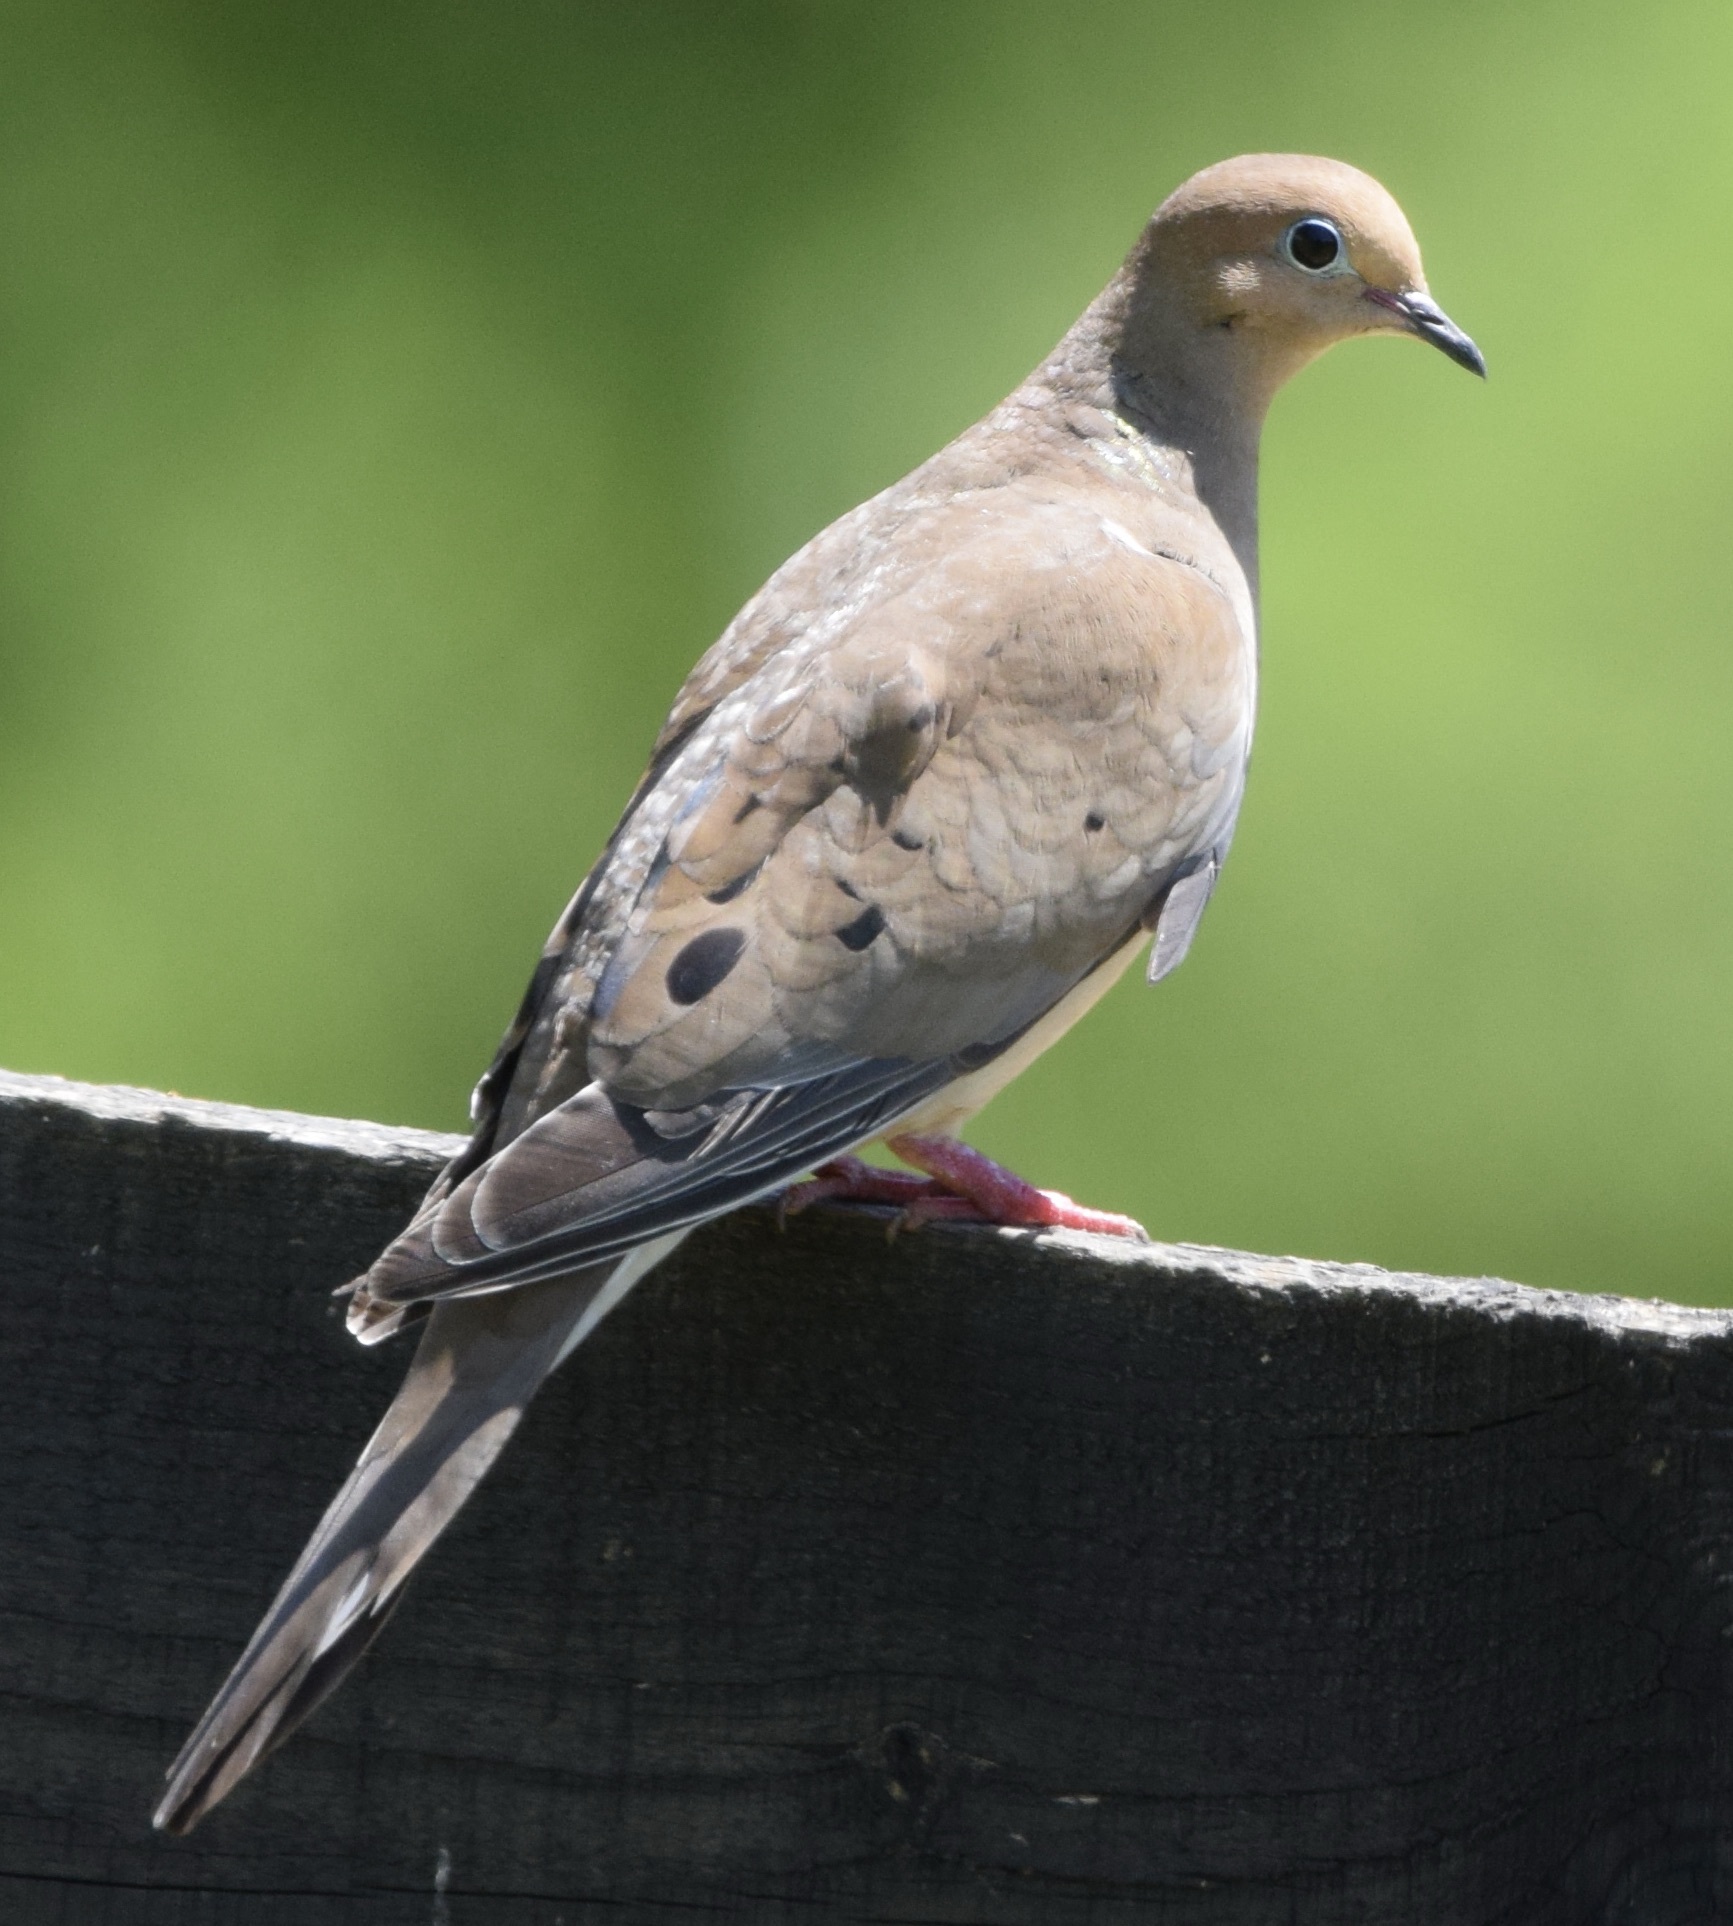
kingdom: Animalia
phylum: Chordata
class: Aves
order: Columbiformes
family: Columbidae
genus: Zenaida
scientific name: Zenaida macroura
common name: Mourning dove
